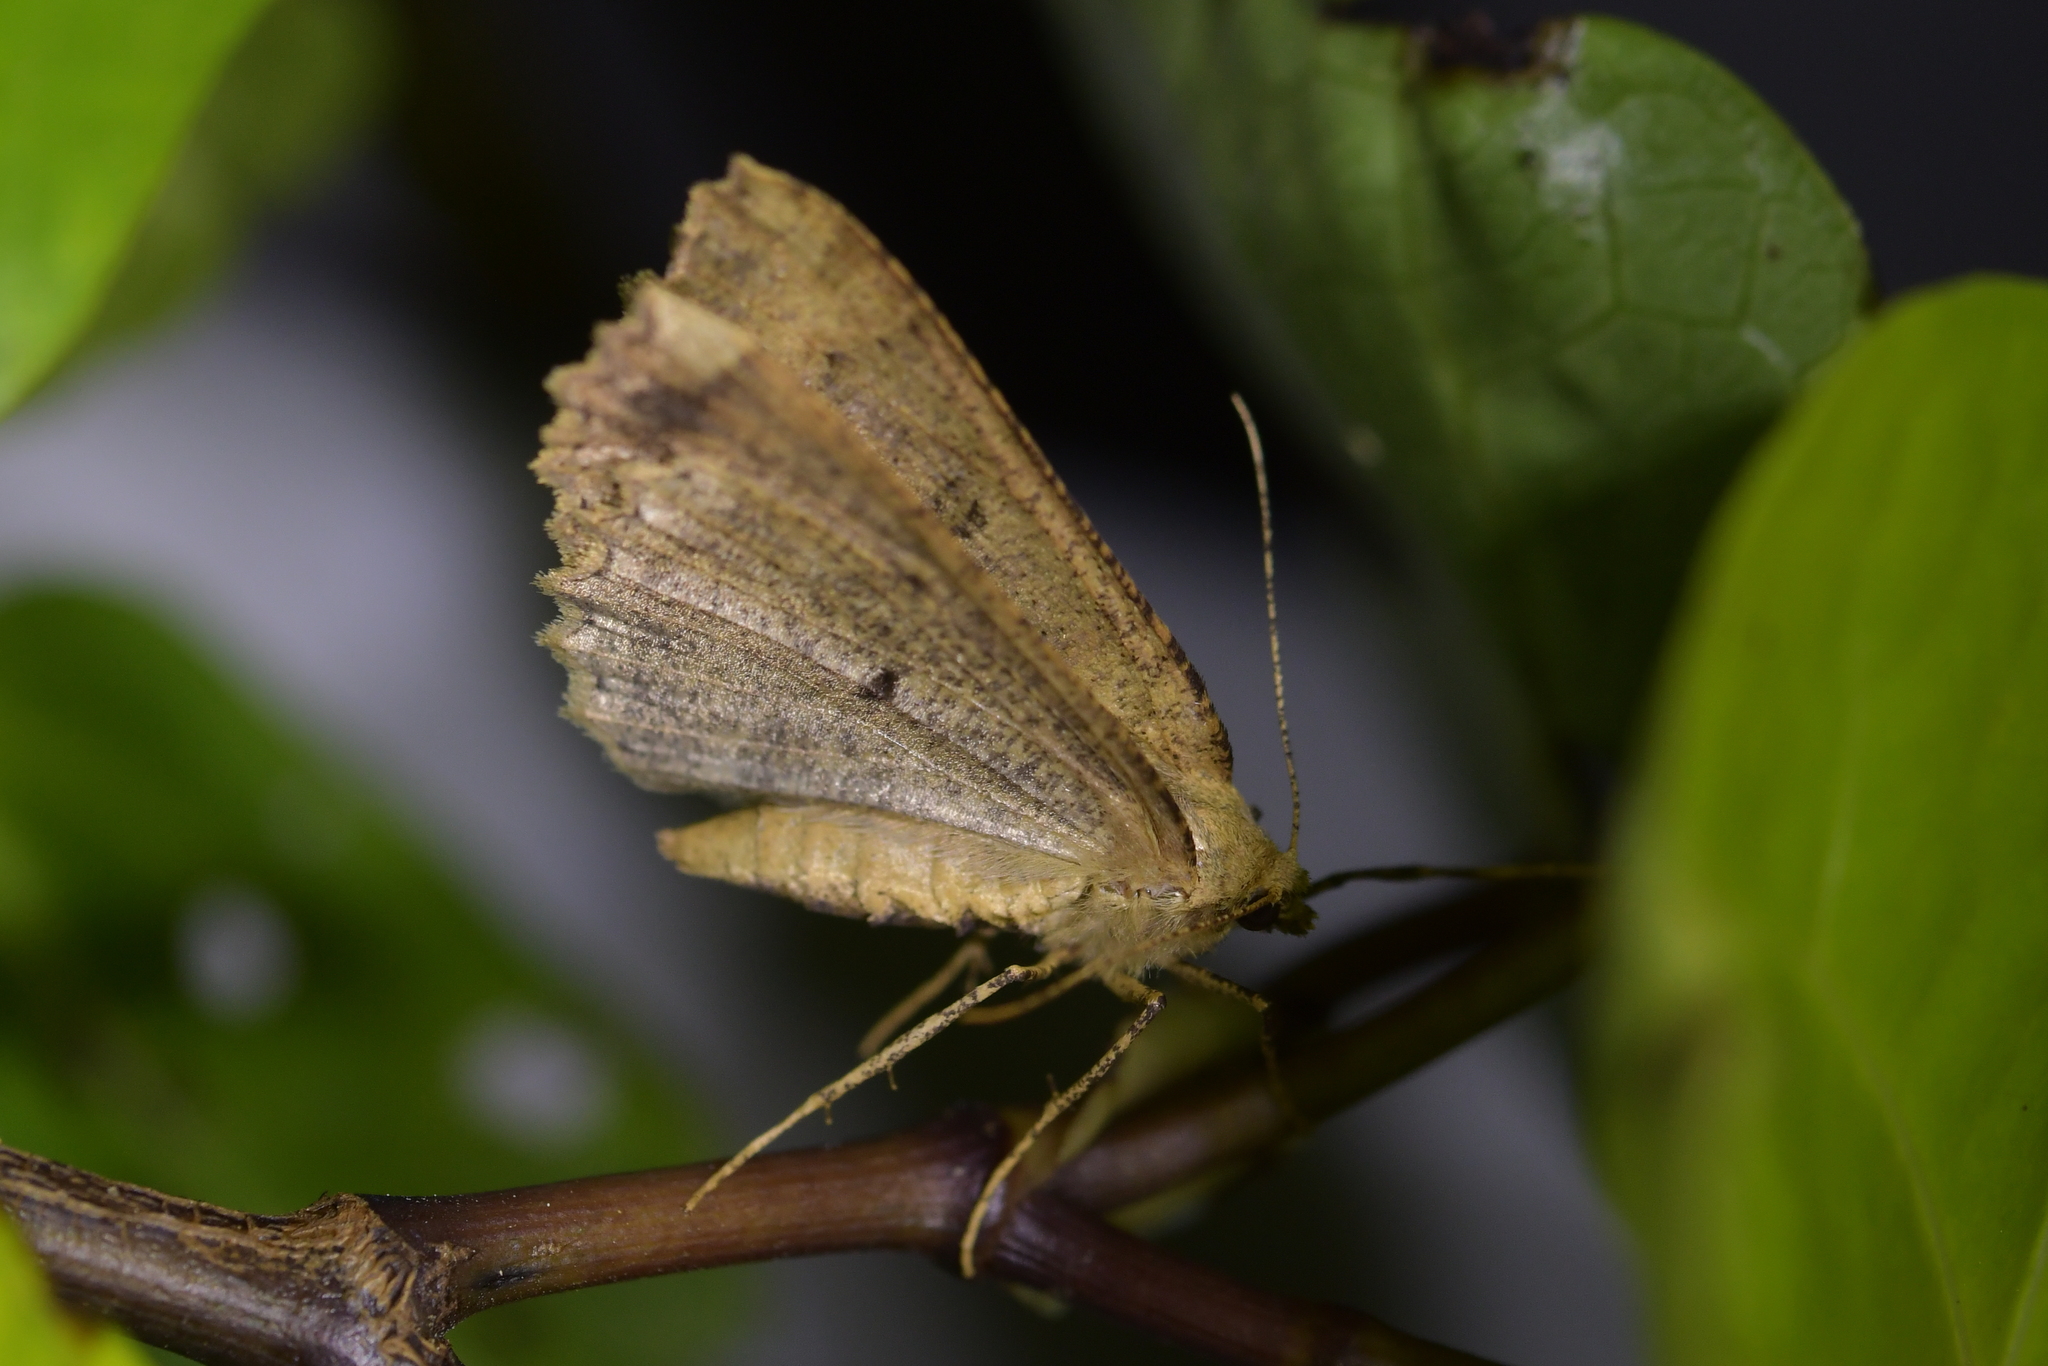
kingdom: Animalia
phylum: Arthropoda
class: Insecta
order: Lepidoptera
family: Geometridae
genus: Cleora
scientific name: Cleora scriptaria
